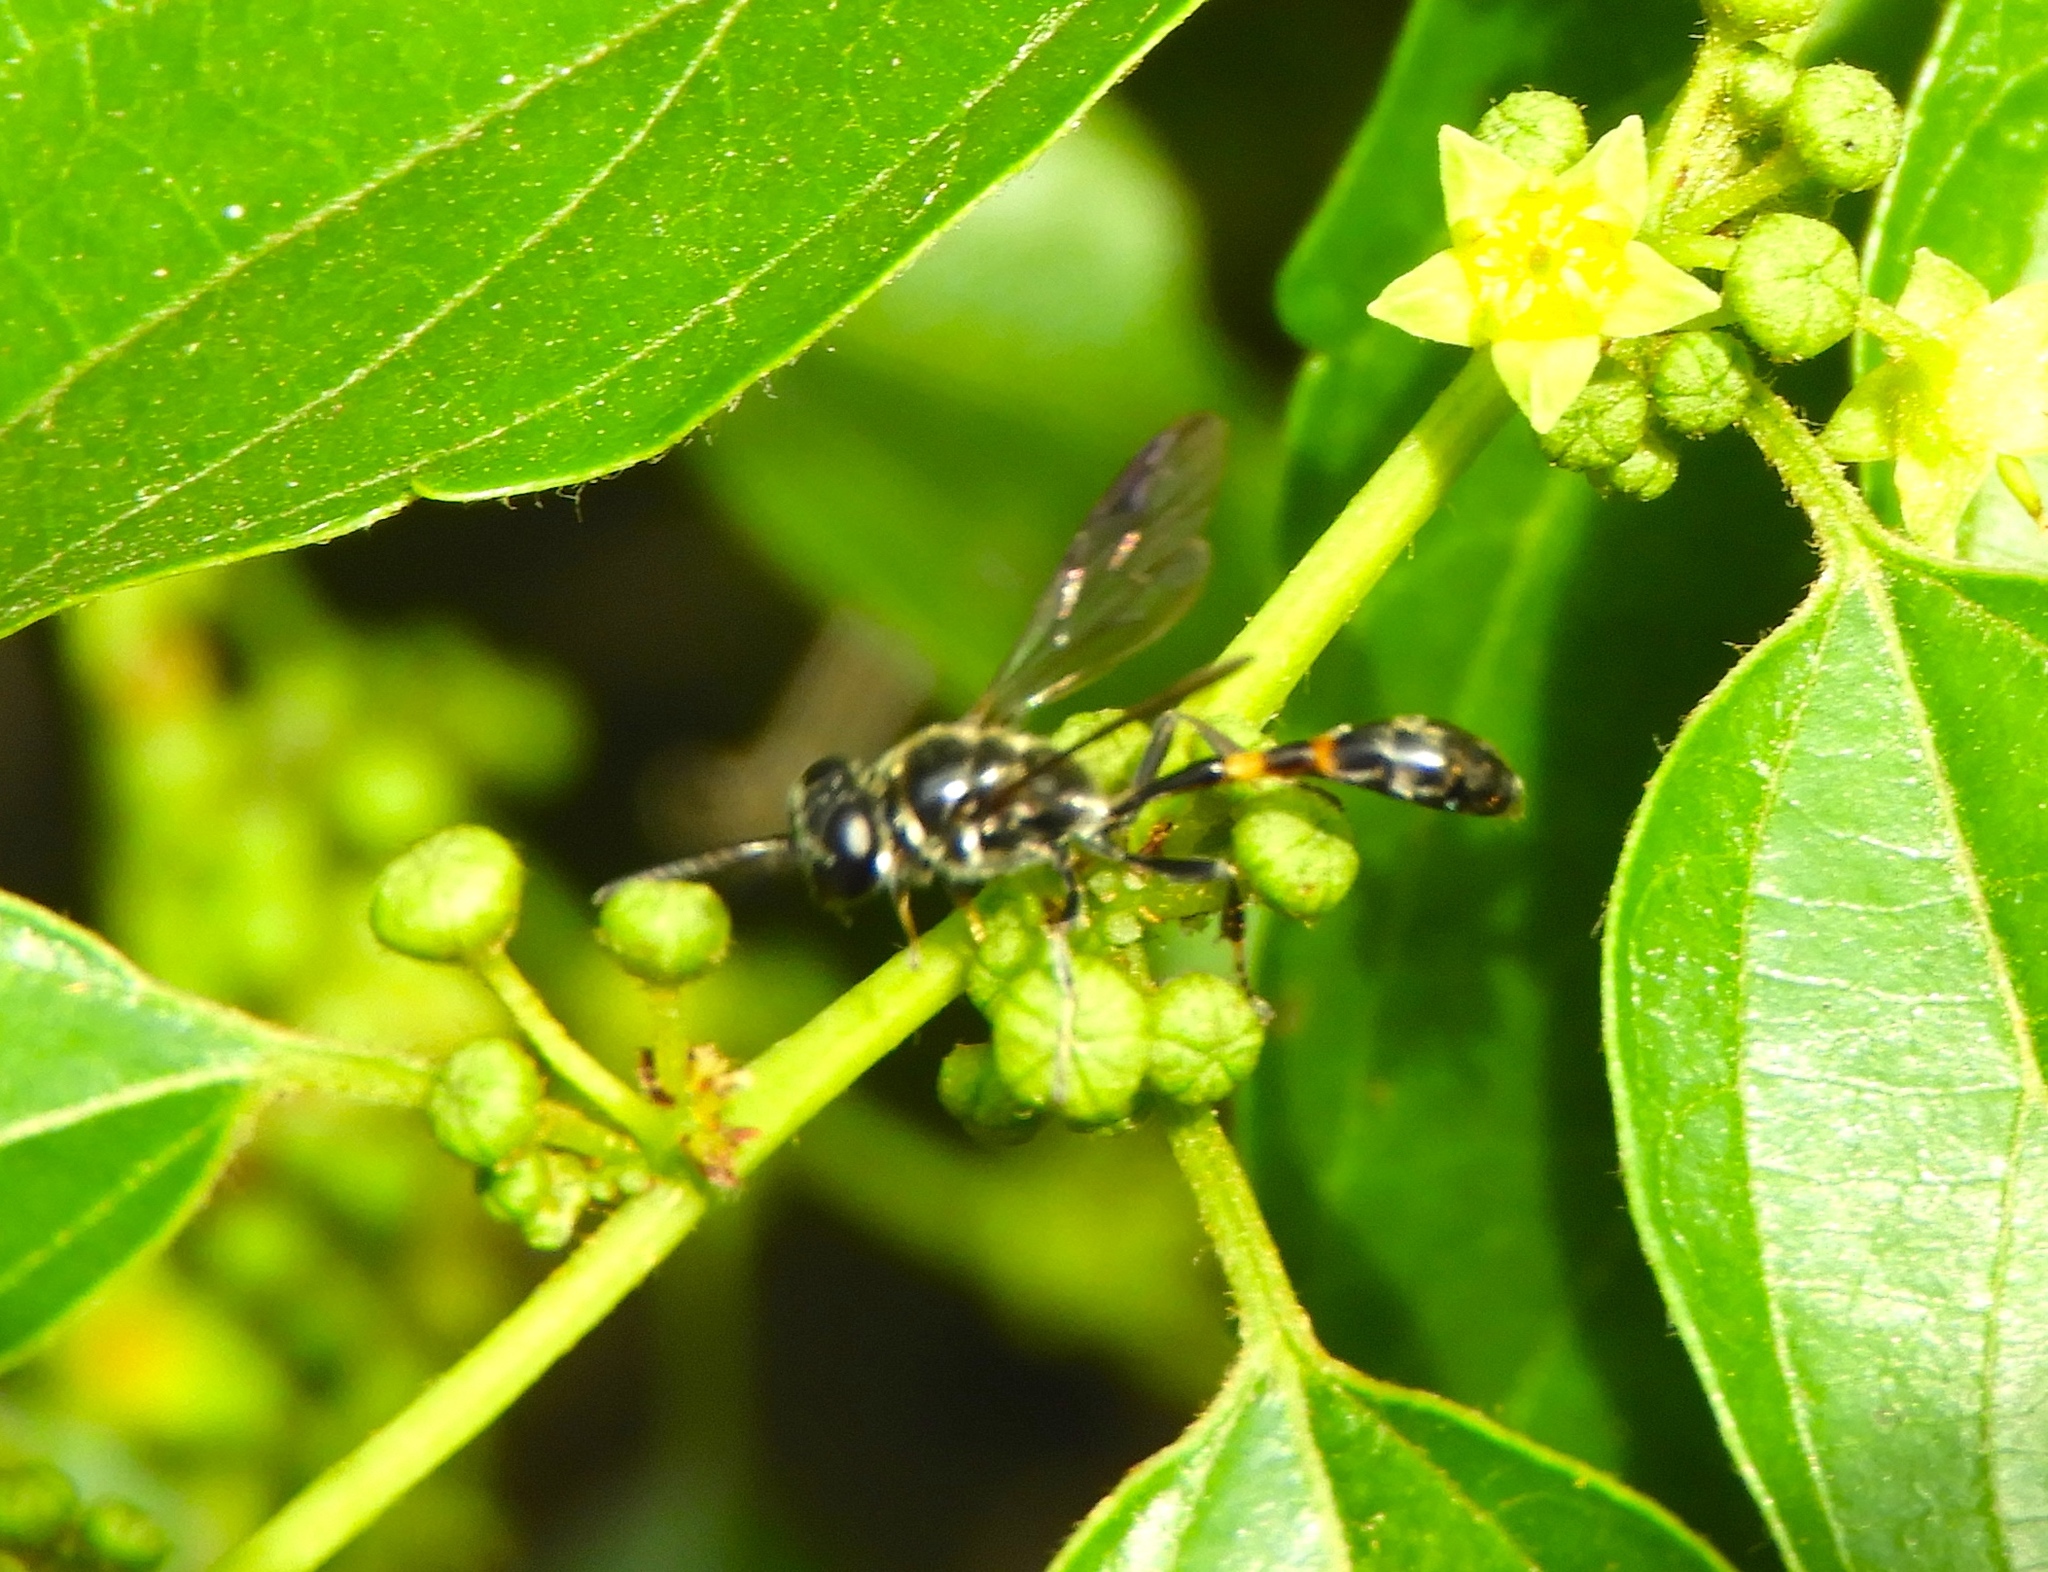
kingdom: Animalia
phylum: Arthropoda
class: Insecta
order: Hymenoptera
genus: Trypargilum
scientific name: Trypargilum
